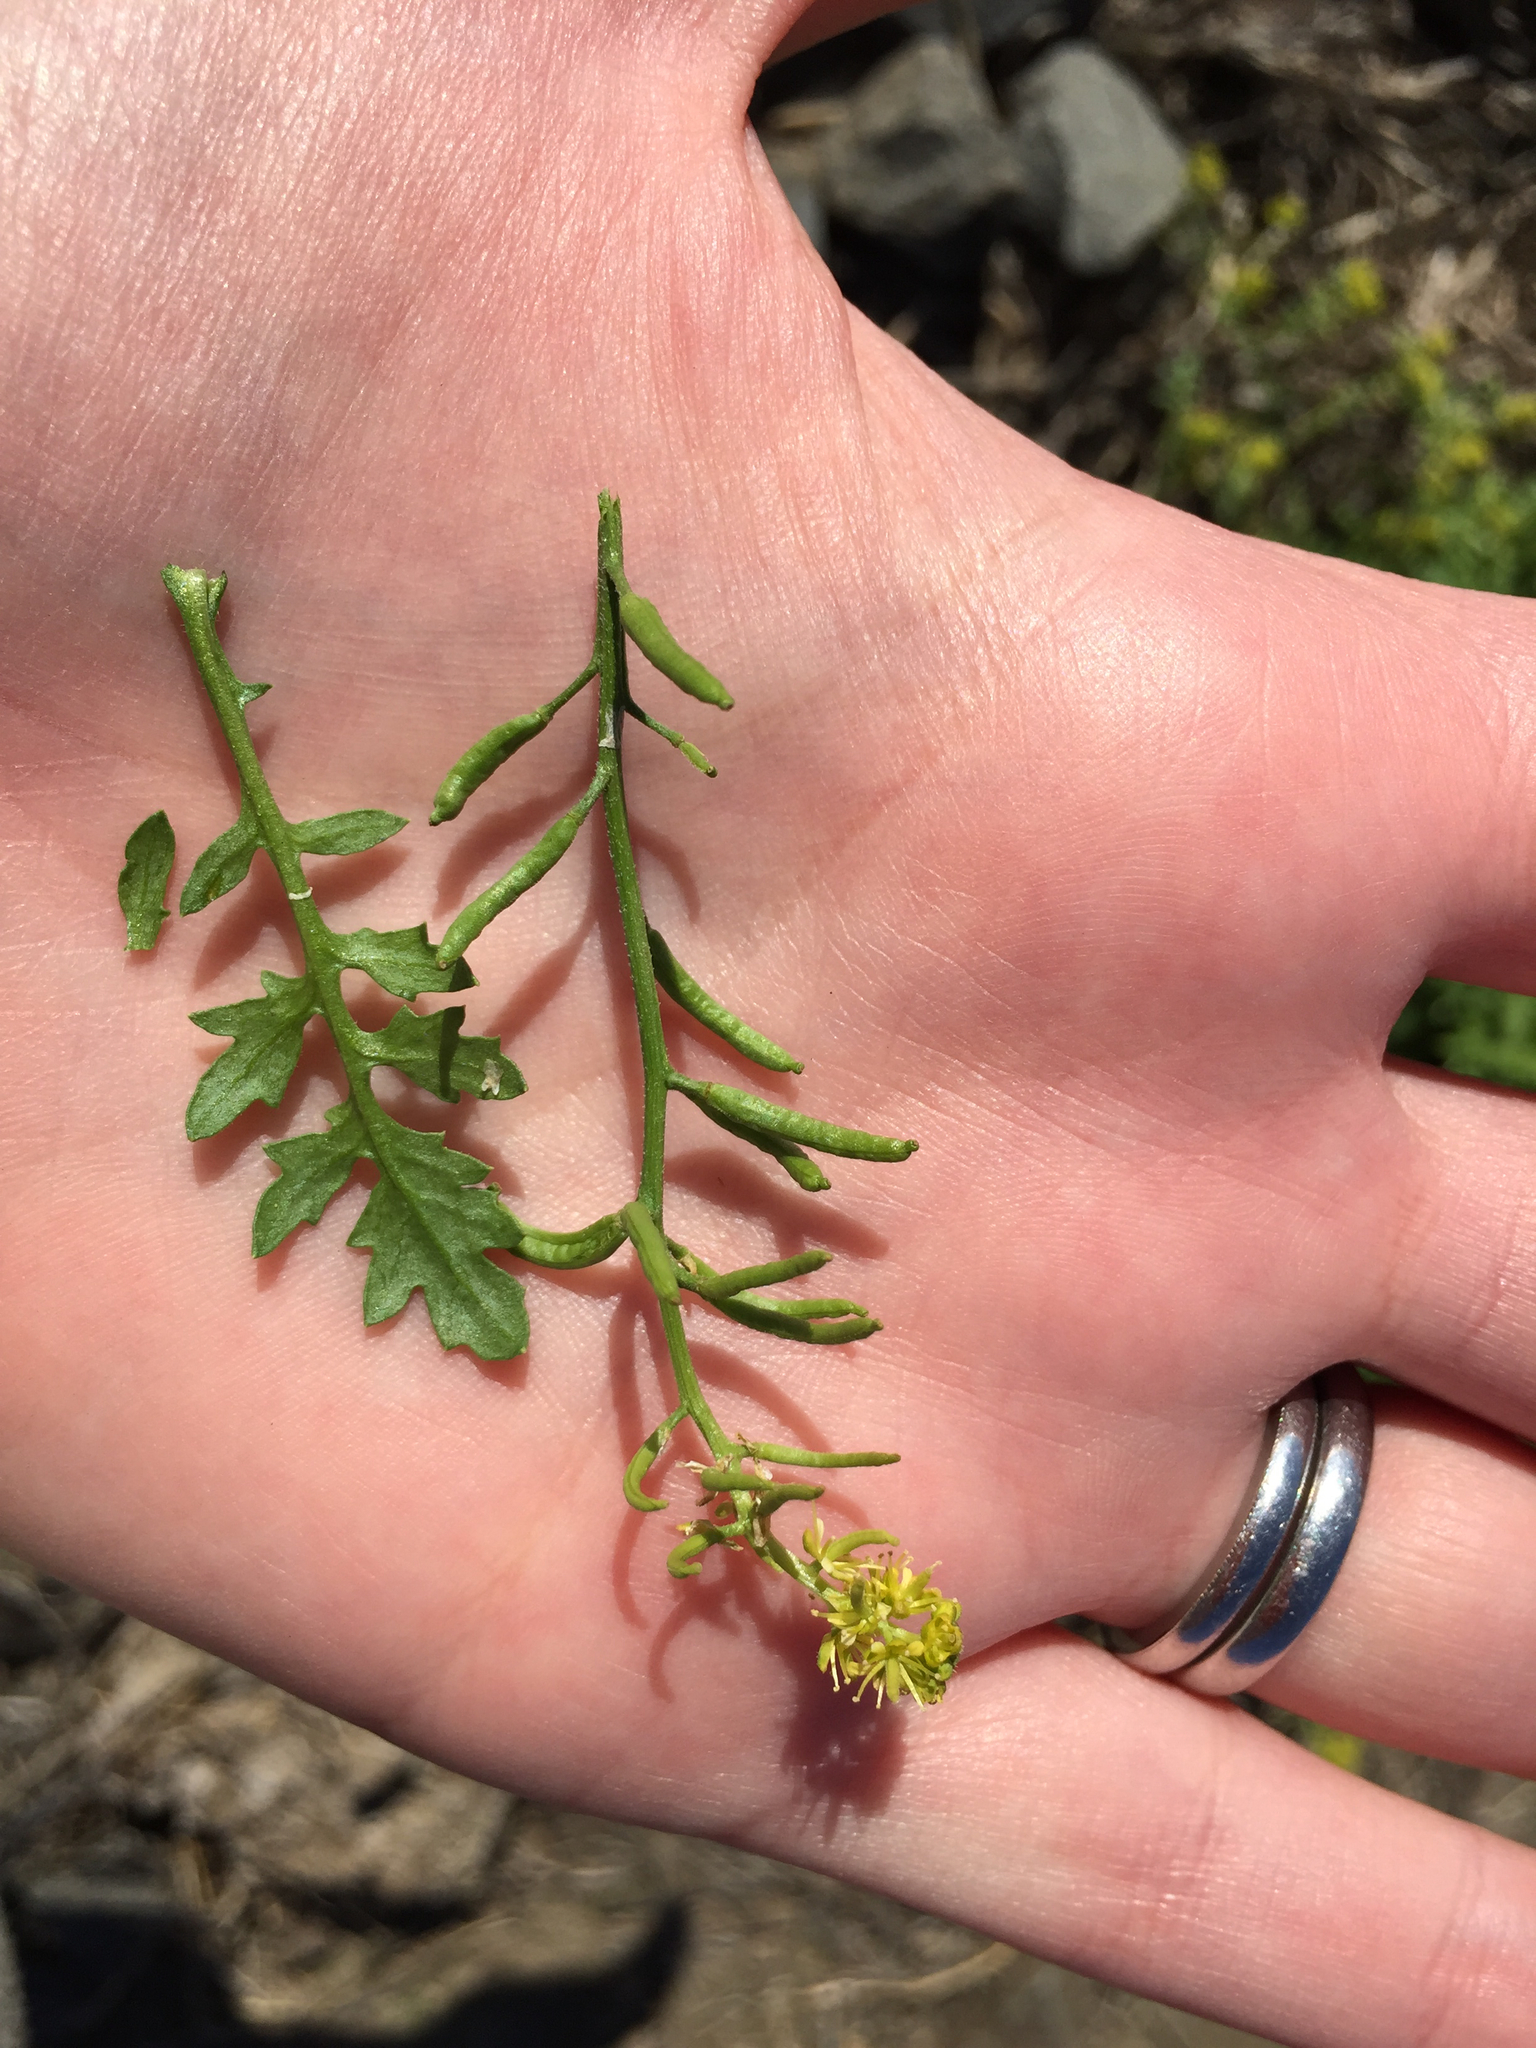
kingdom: Plantae
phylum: Tracheophyta
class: Magnoliopsida
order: Brassicales
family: Brassicaceae
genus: Rorippa
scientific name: Rorippa curvisiliqua
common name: Curve-pod yellow cress
